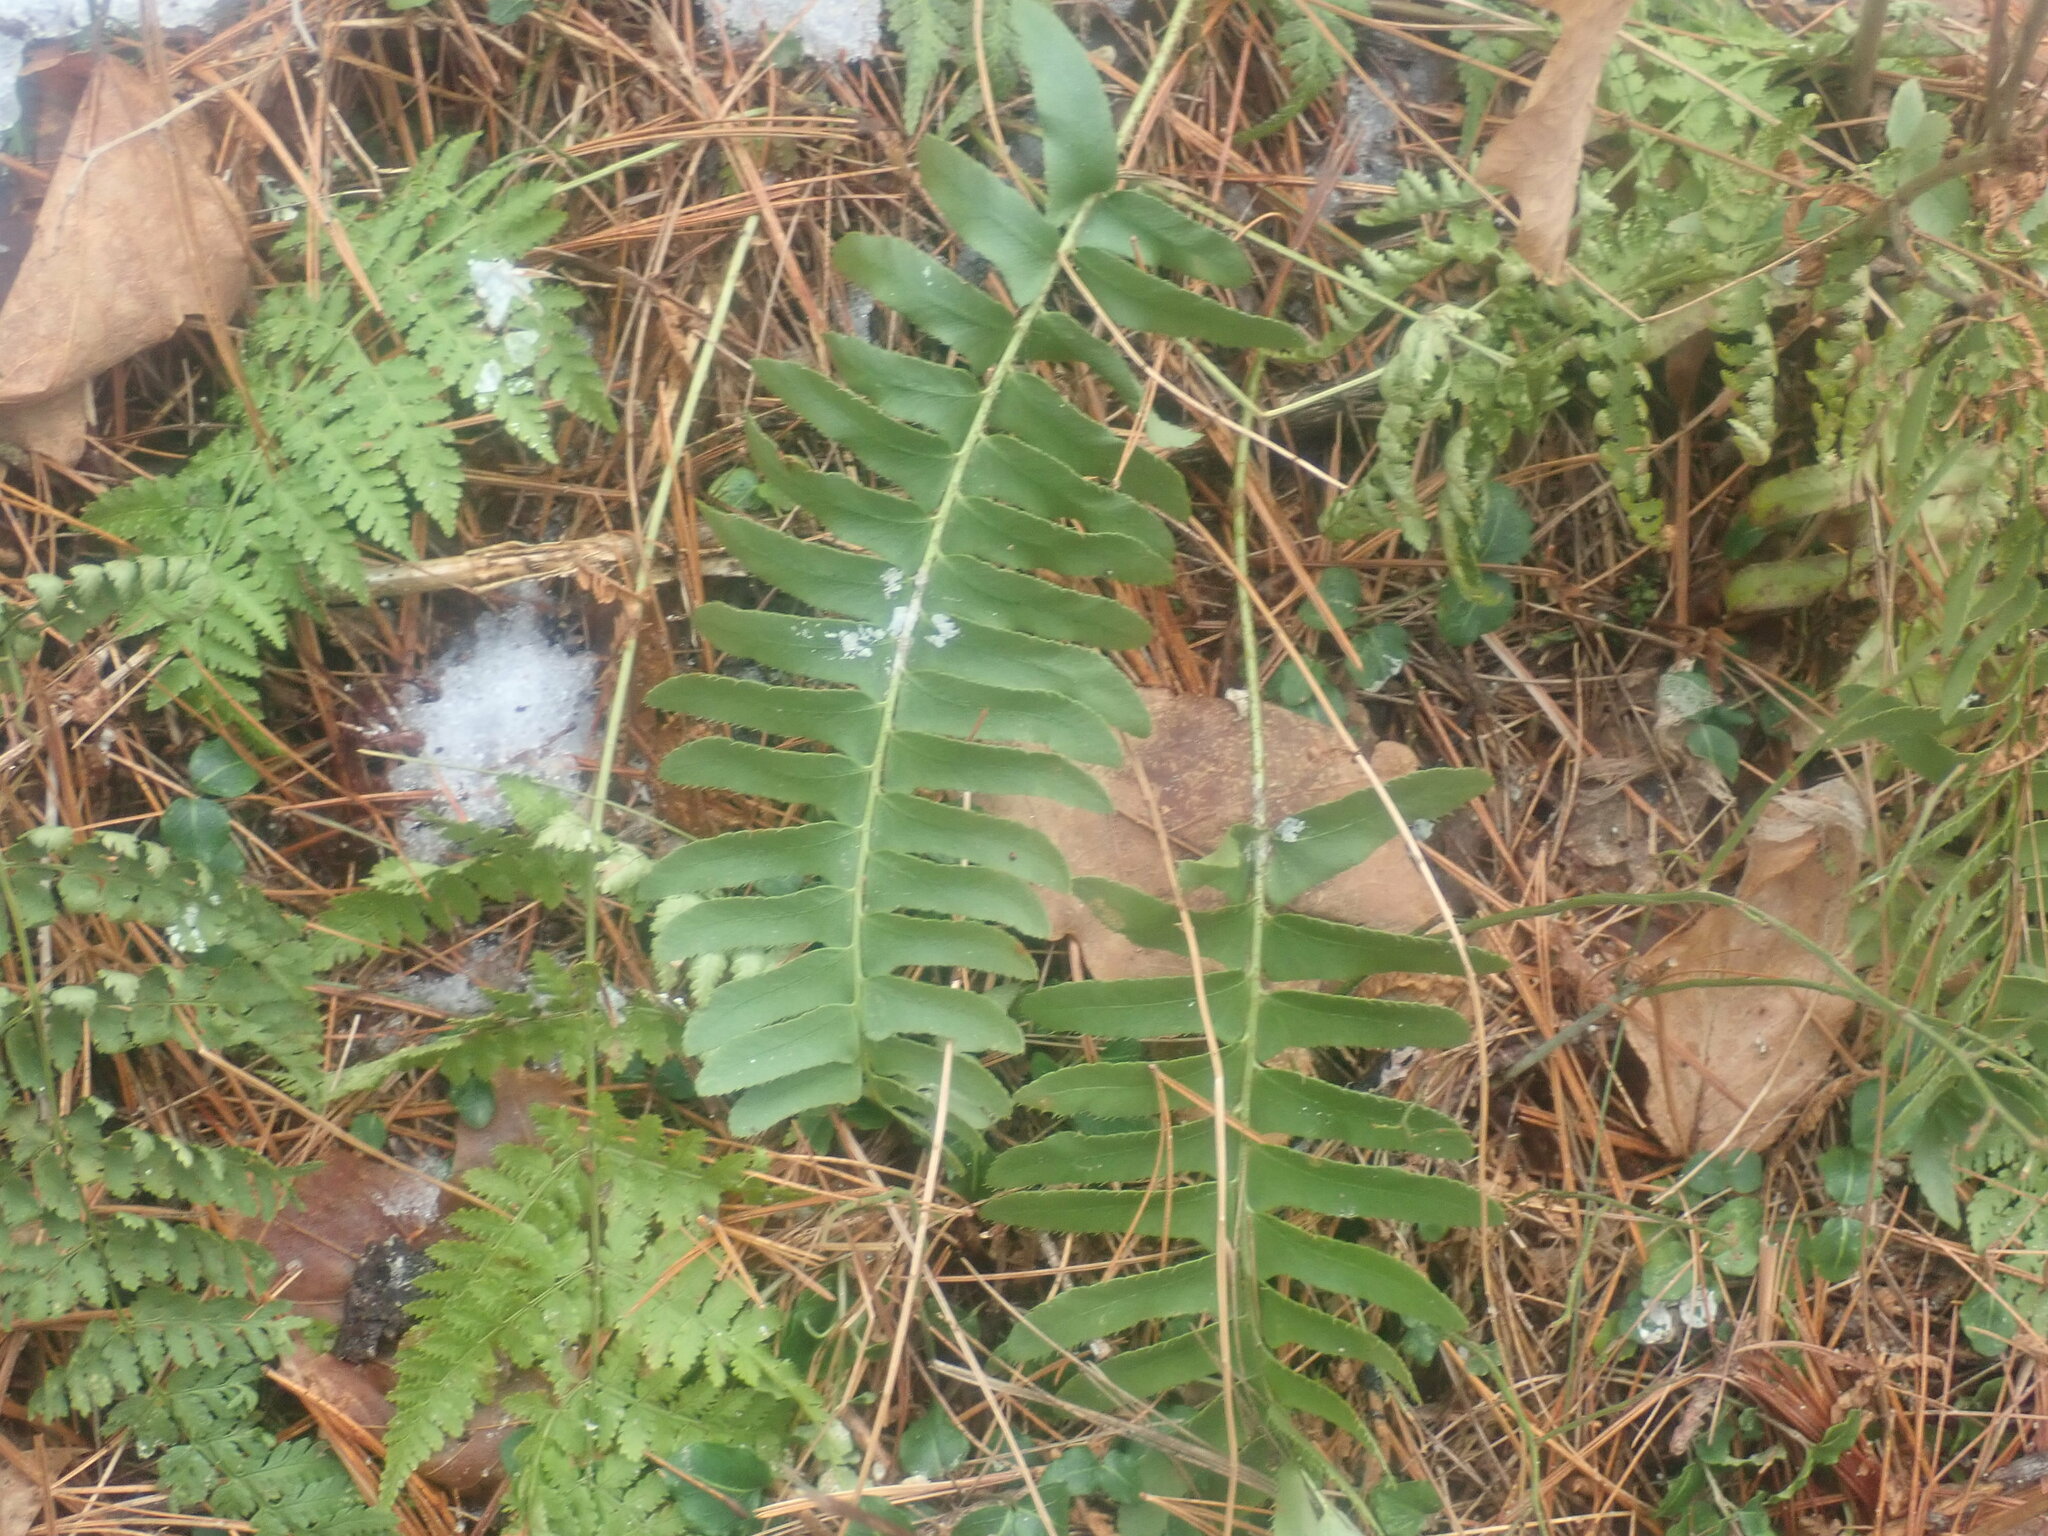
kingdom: Plantae
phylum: Tracheophyta
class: Polypodiopsida
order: Polypodiales
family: Dryopteridaceae
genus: Polystichum
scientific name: Polystichum acrostichoides
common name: Christmas fern
